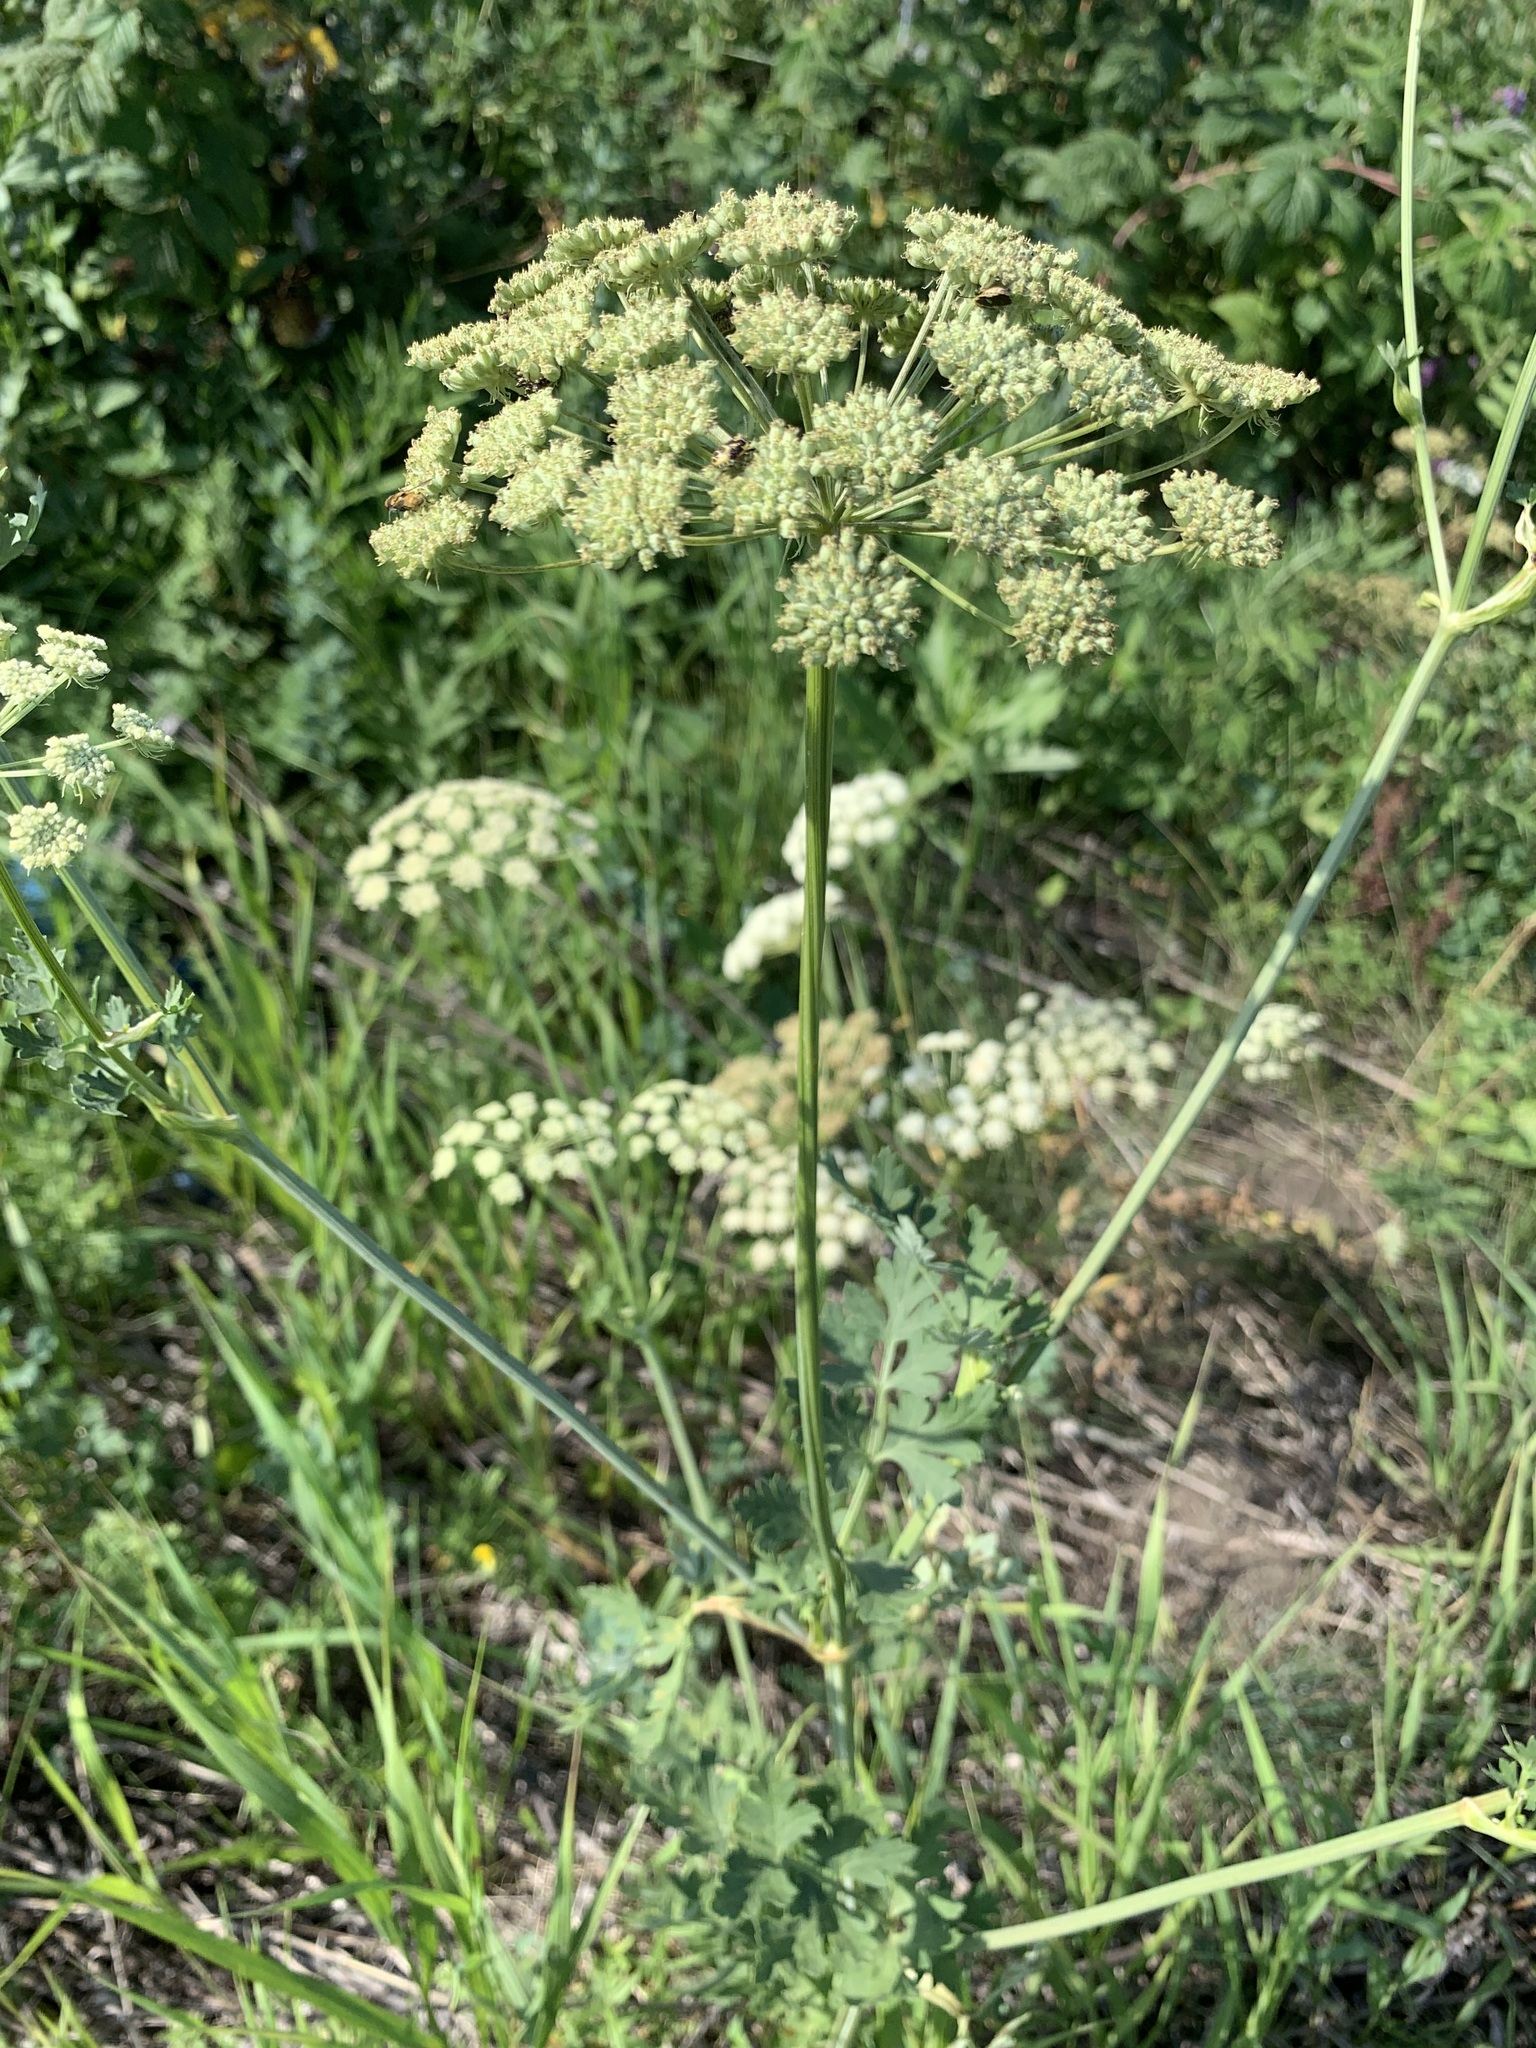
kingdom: Plantae
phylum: Tracheophyta
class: Magnoliopsida
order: Apiales
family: Apiaceae
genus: Seseli
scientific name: Seseli libanotis
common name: Mooncarrot
